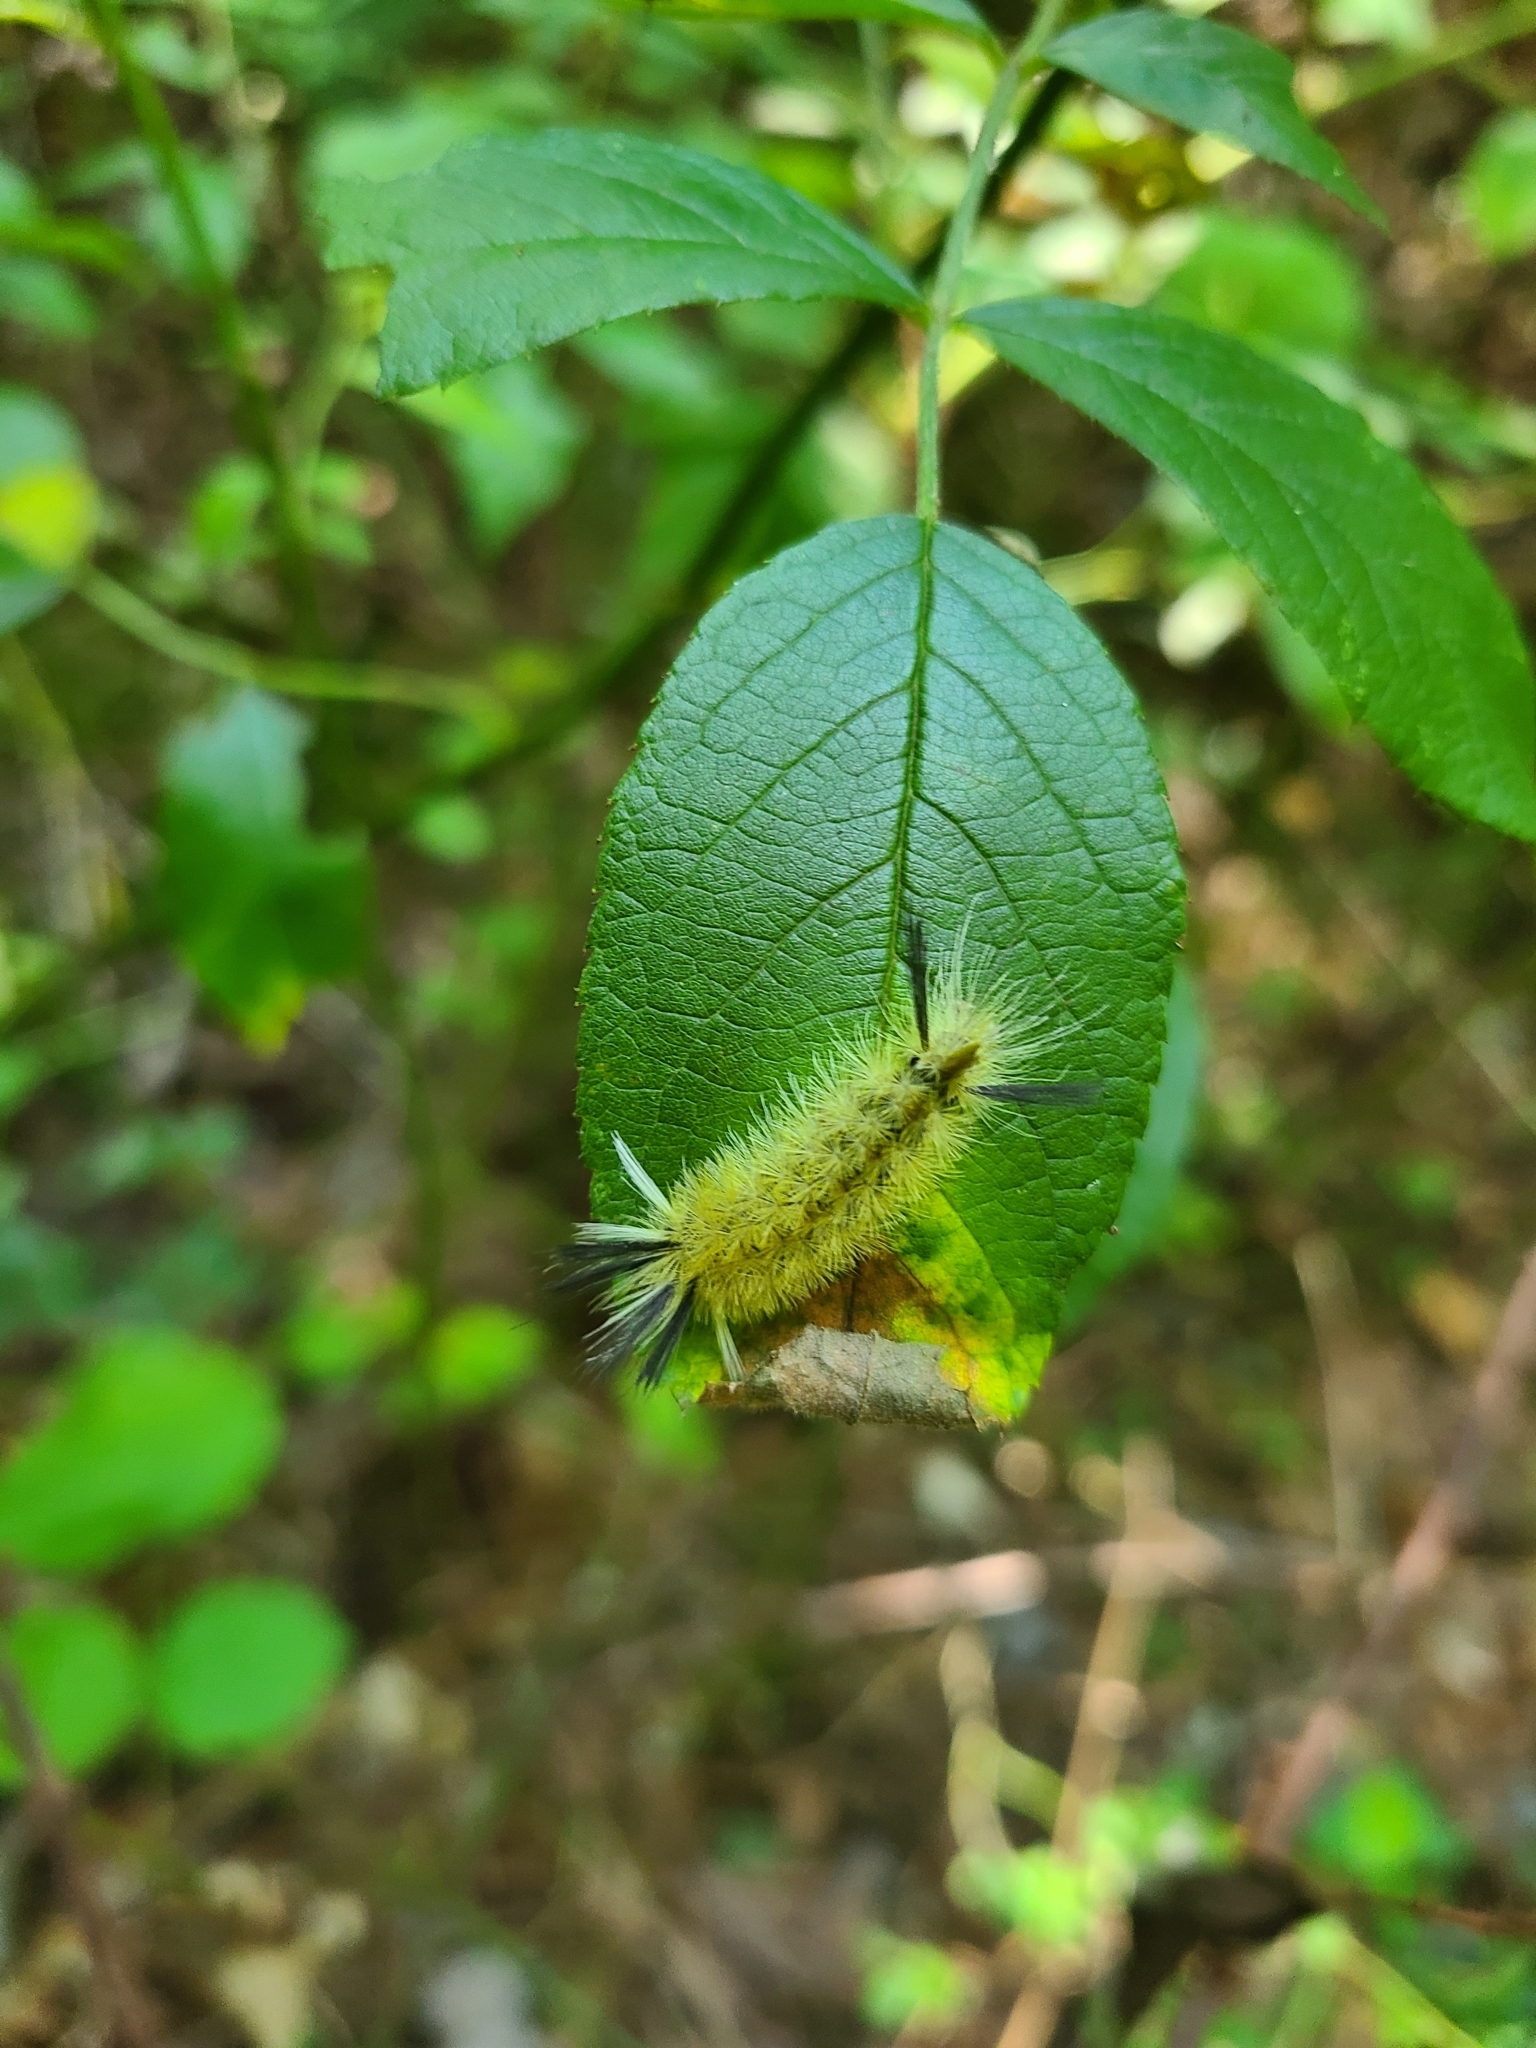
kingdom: Animalia
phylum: Arthropoda
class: Insecta
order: Lepidoptera
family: Erebidae
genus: Halysidota
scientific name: Halysidota tessellaris
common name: Banded tussock moth
